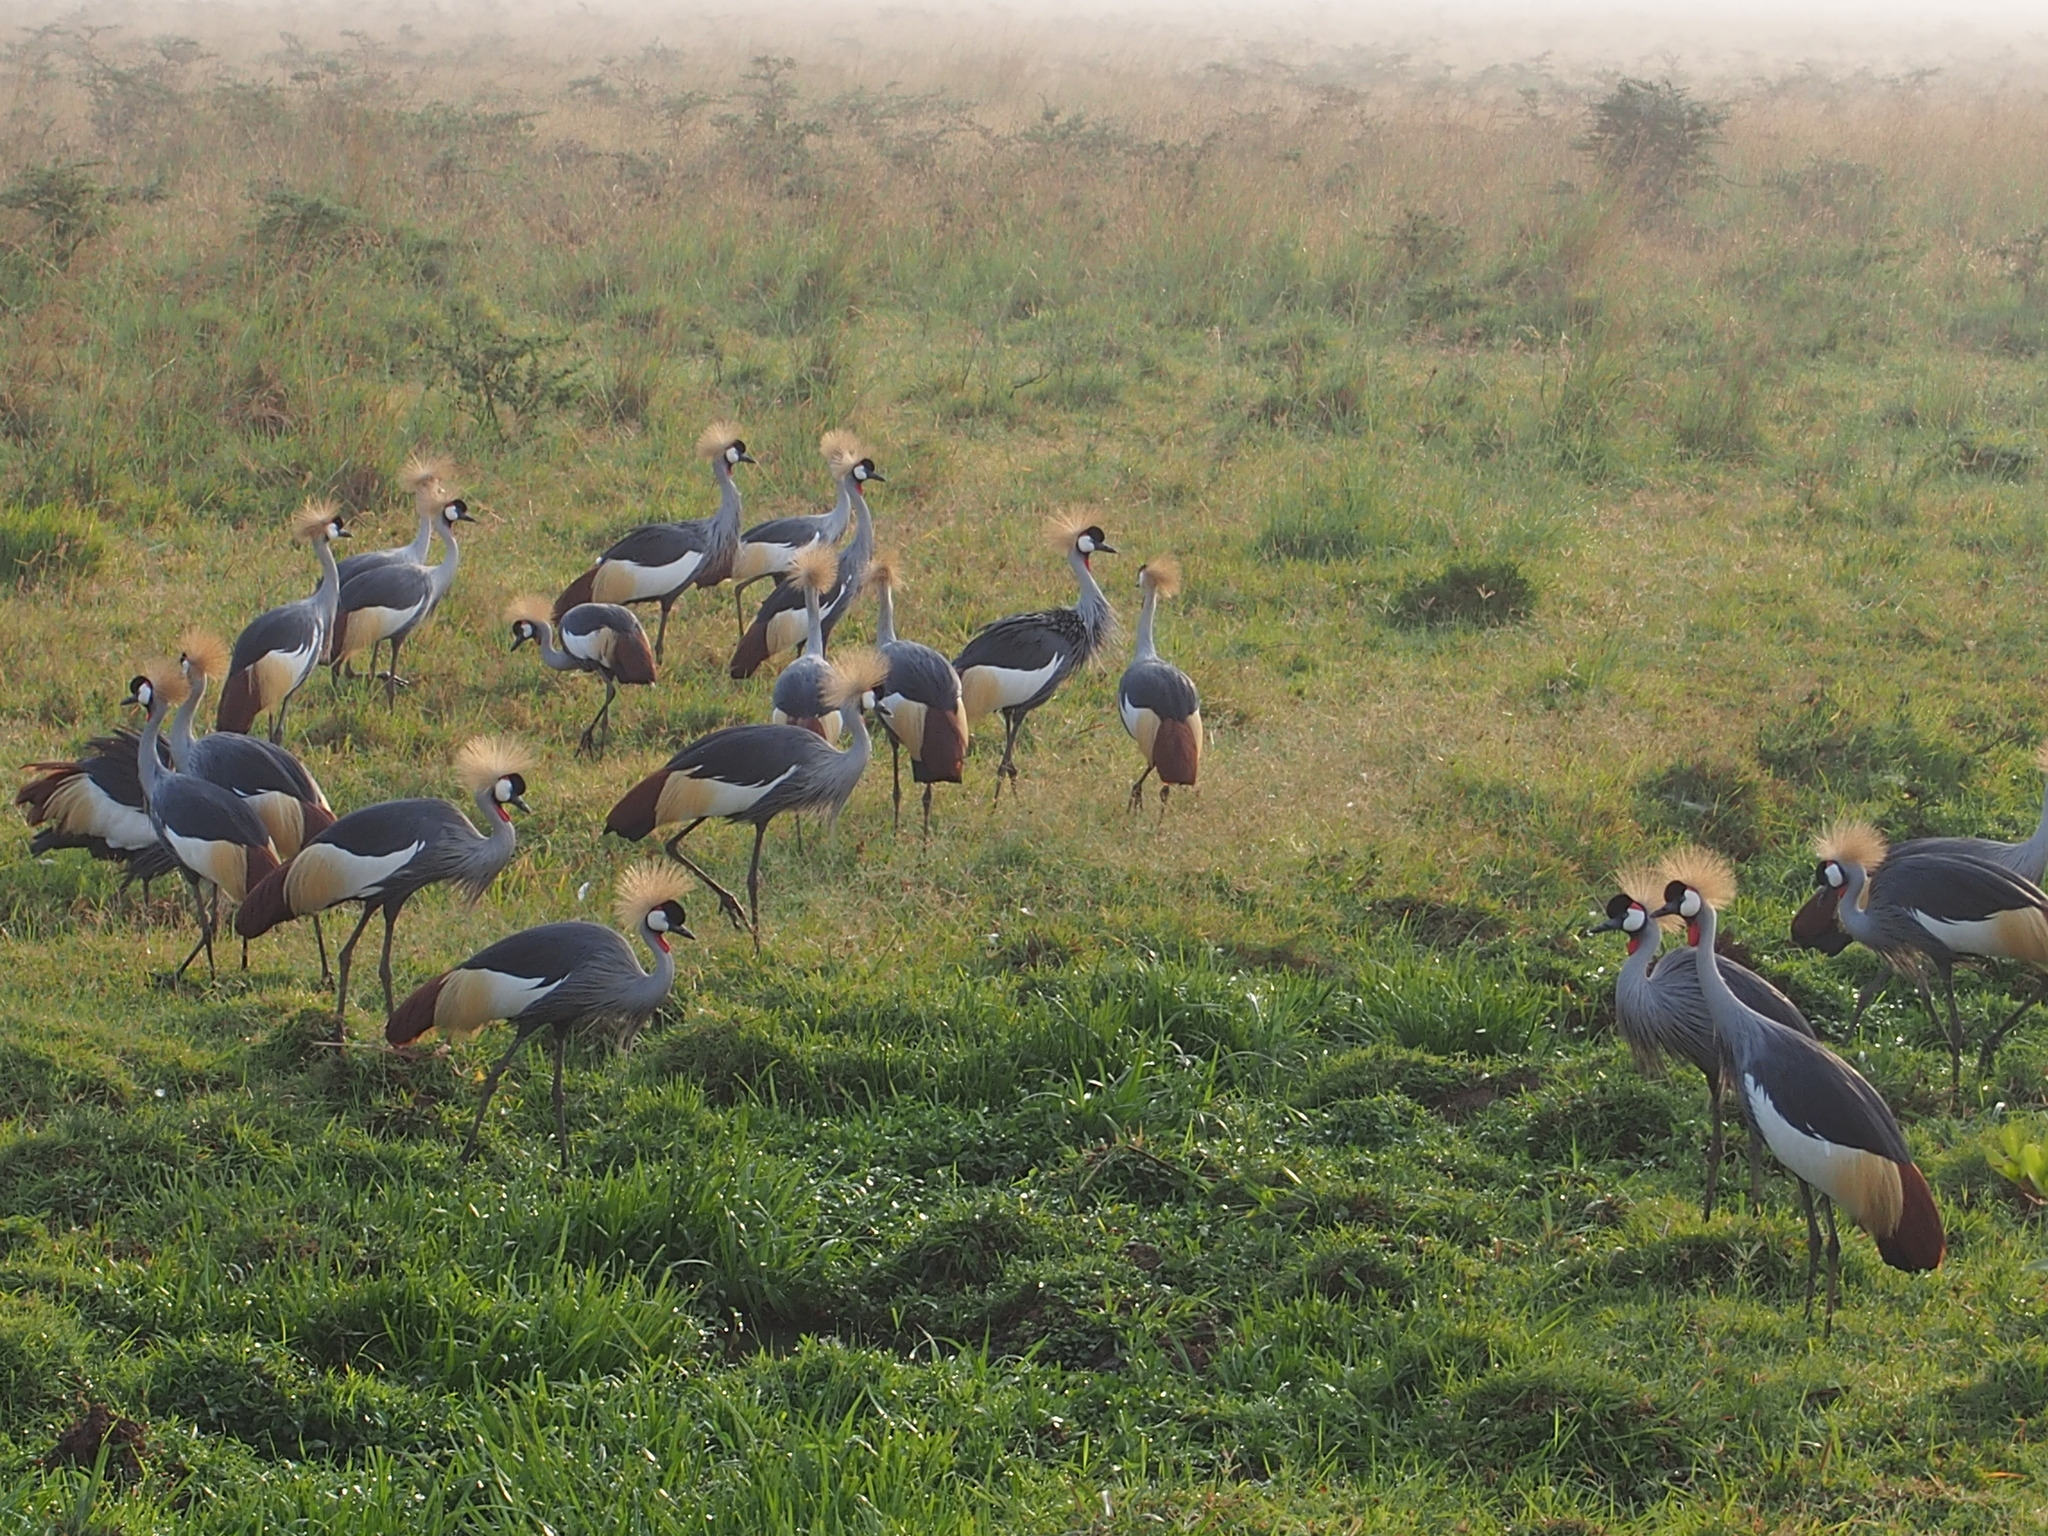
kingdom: Animalia
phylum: Chordata
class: Aves
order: Gruiformes
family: Gruidae
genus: Balearica
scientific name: Balearica regulorum
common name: Grey crowned crane
